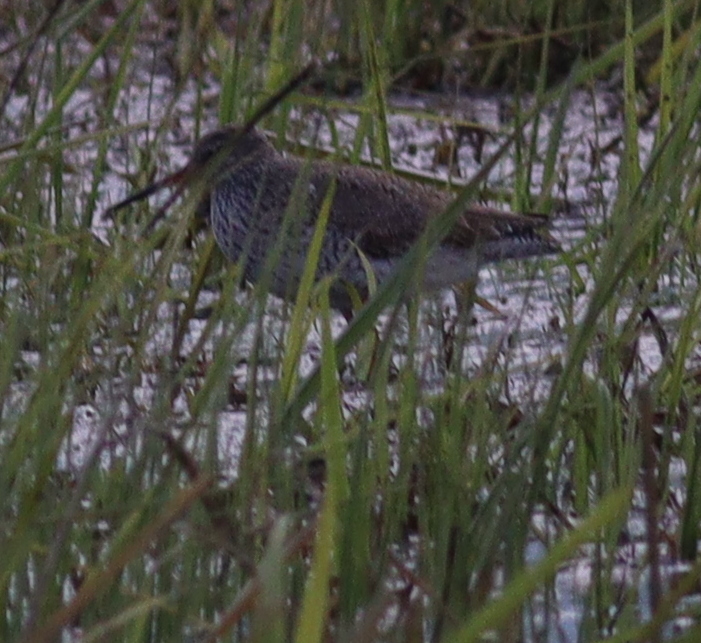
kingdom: Animalia
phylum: Chordata
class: Aves
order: Charadriiformes
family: Scolopacidae
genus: Tringa
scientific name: Tringa totanus
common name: Common redshank
